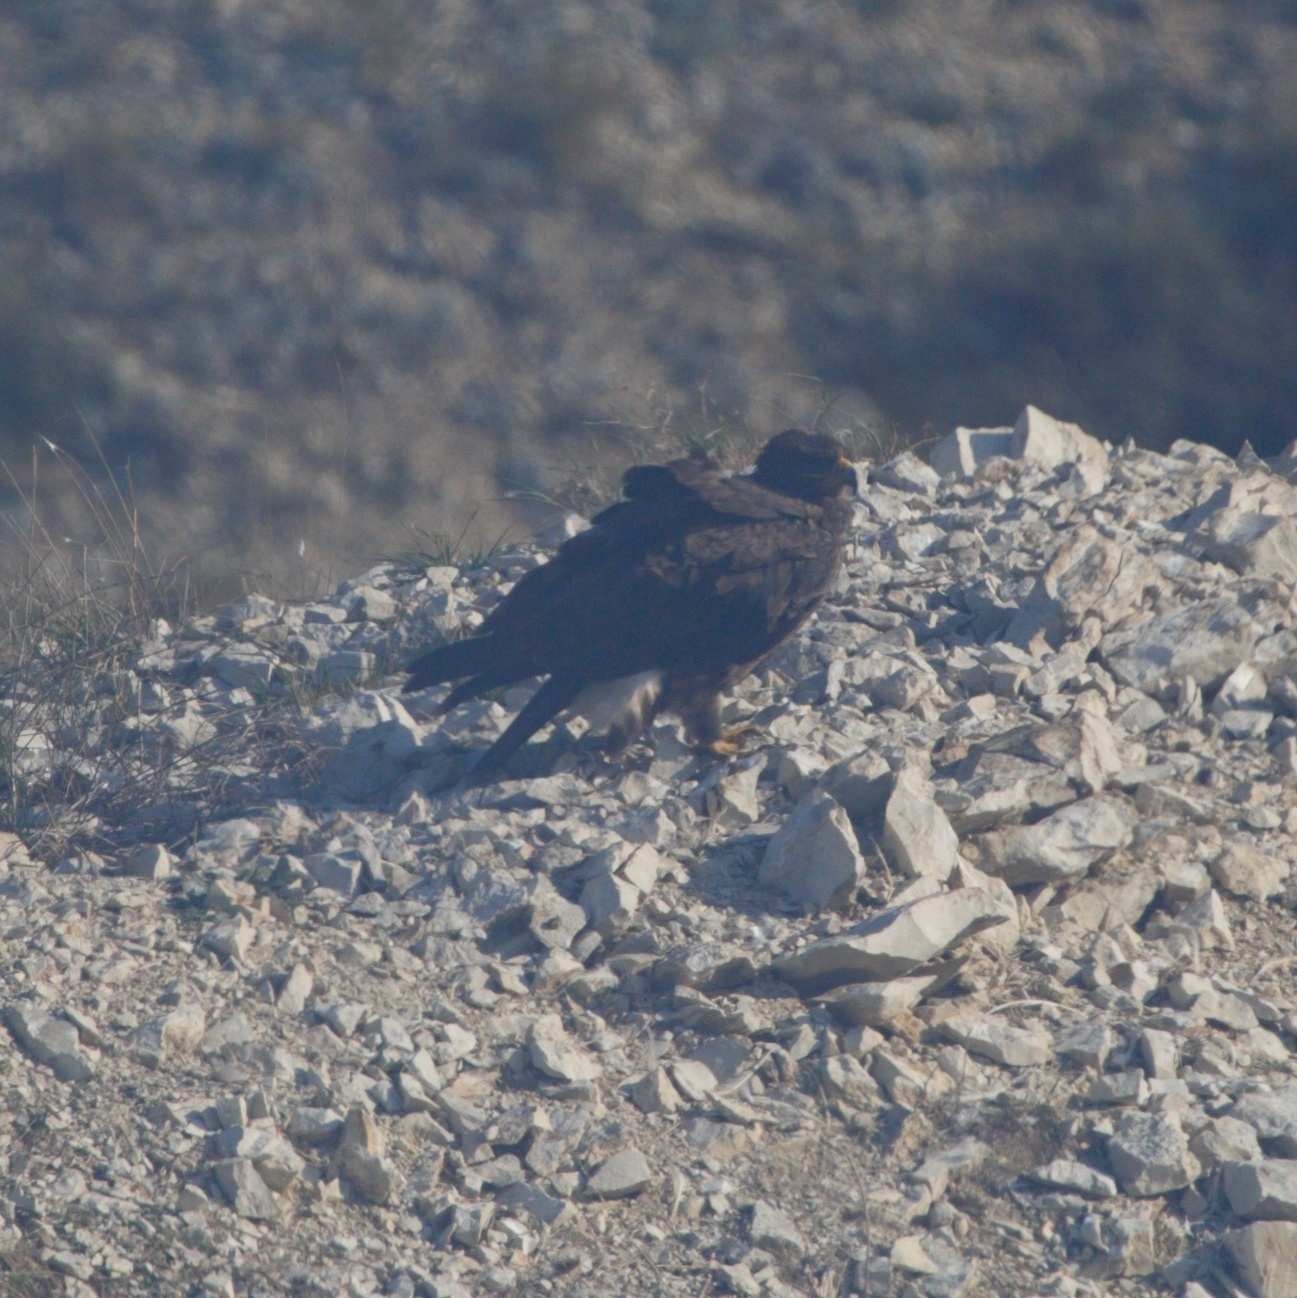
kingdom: Animalia
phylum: Chordata
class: Aves
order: Accipitriformes
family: Accipitridae
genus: Aquila
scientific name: Aquila nipalensis
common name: Steppe eagle
